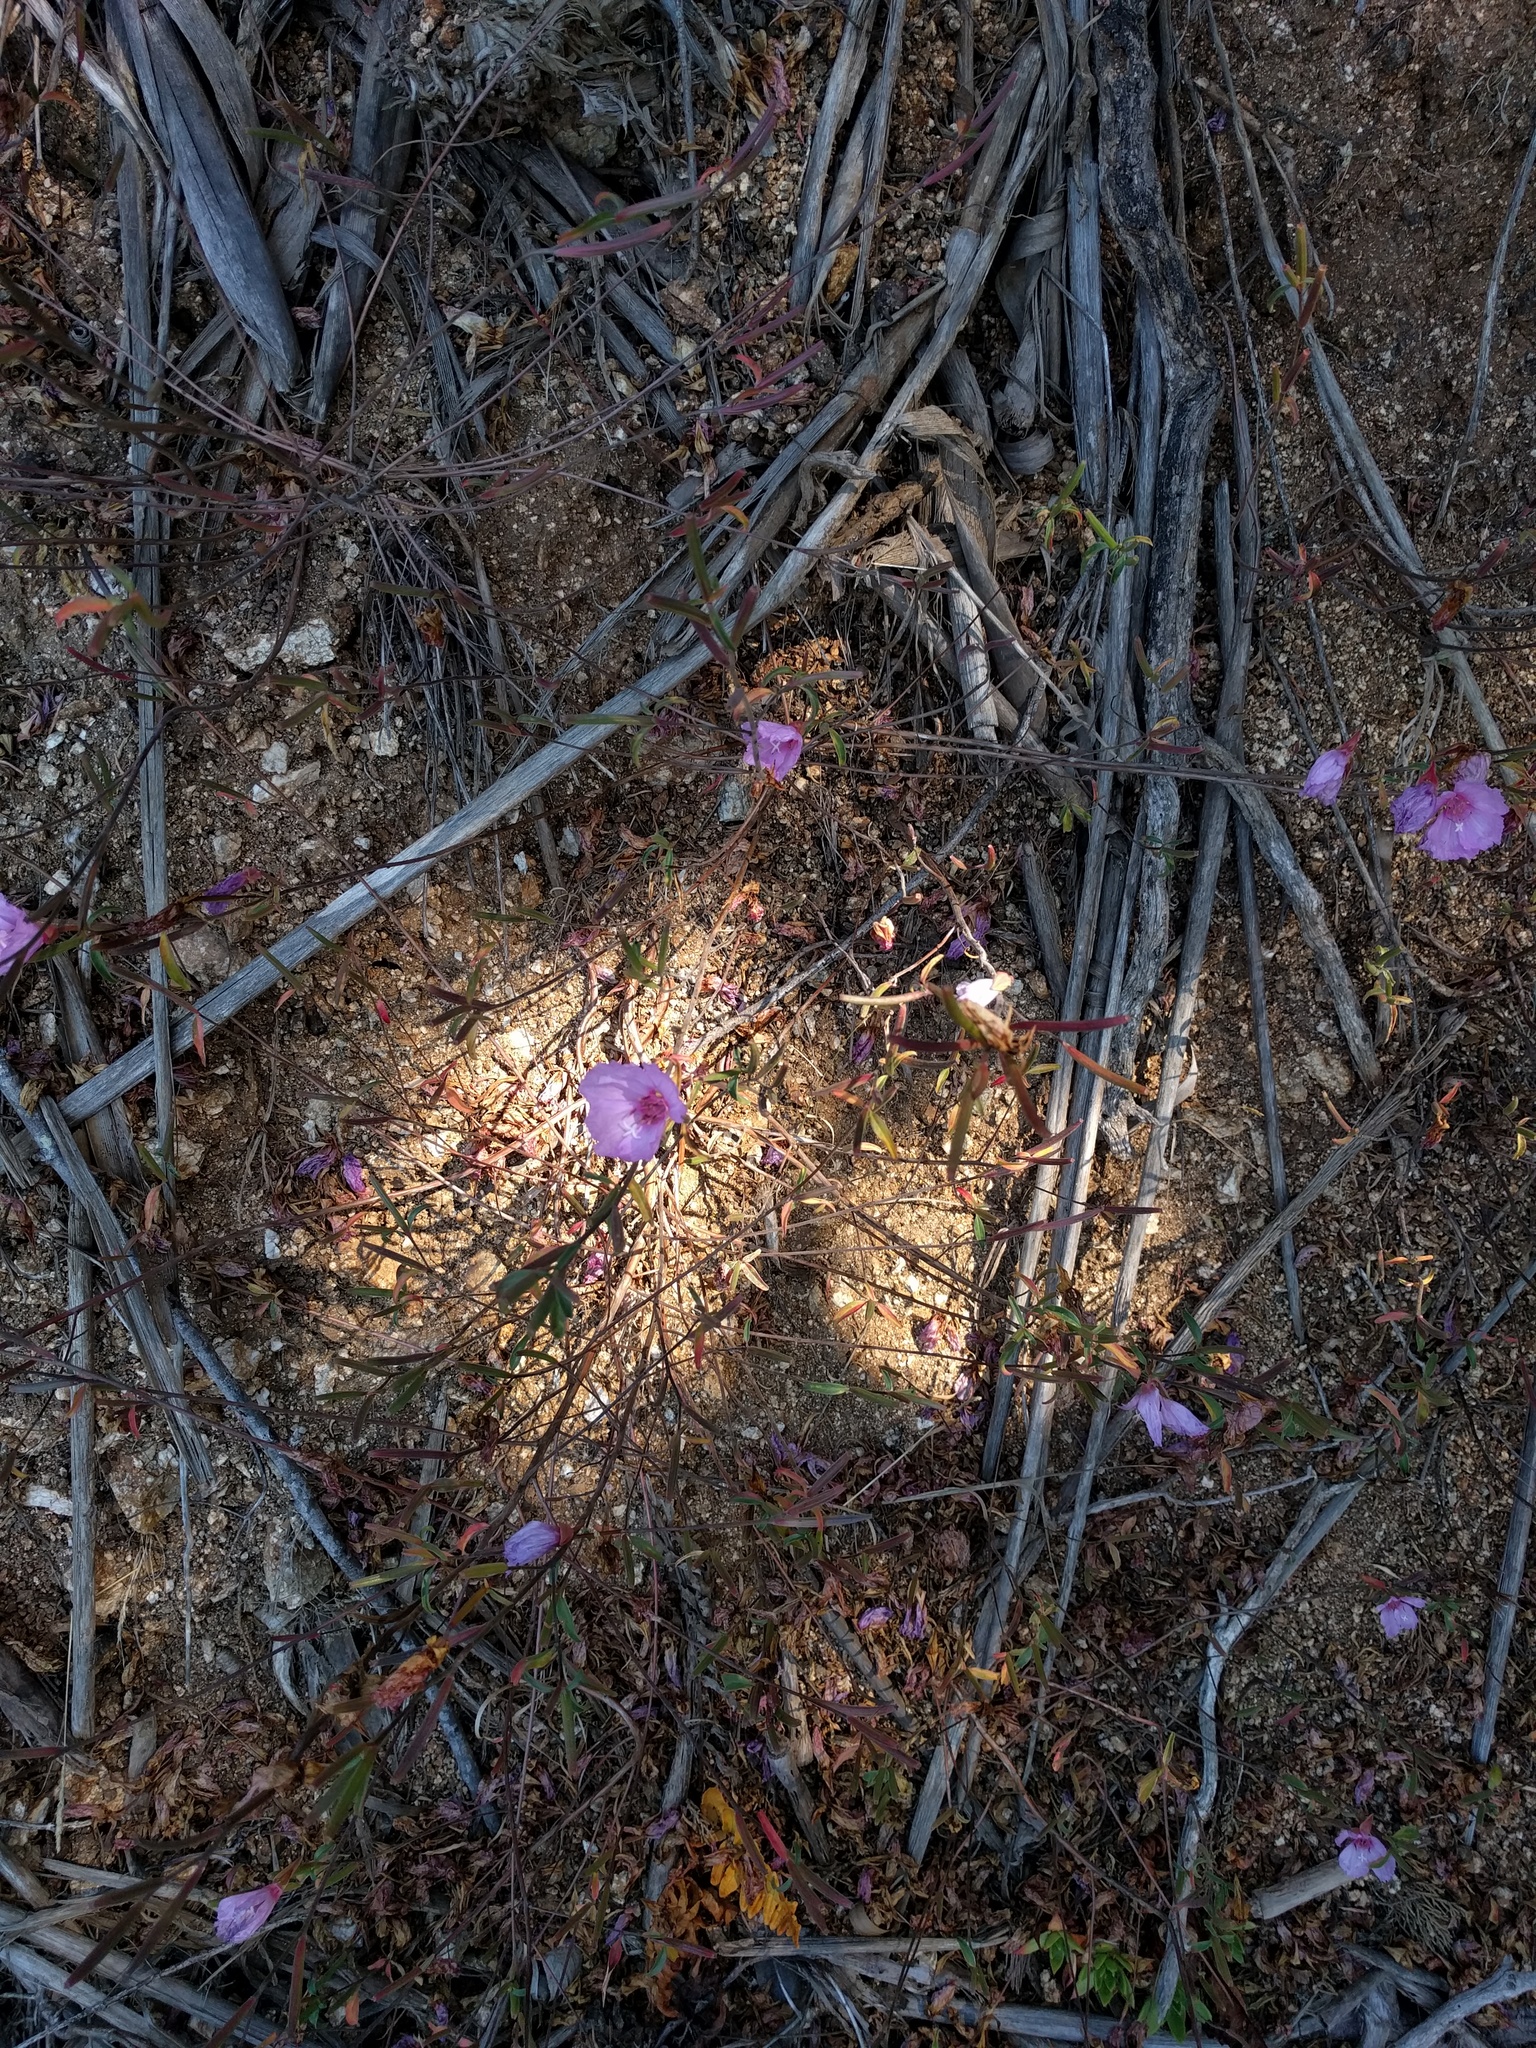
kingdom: Plantae
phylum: Tracheophyta
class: Magnoliopsida
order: Myrtales
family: Onagraceae
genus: Clarkia
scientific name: Clarkia rubicunda
